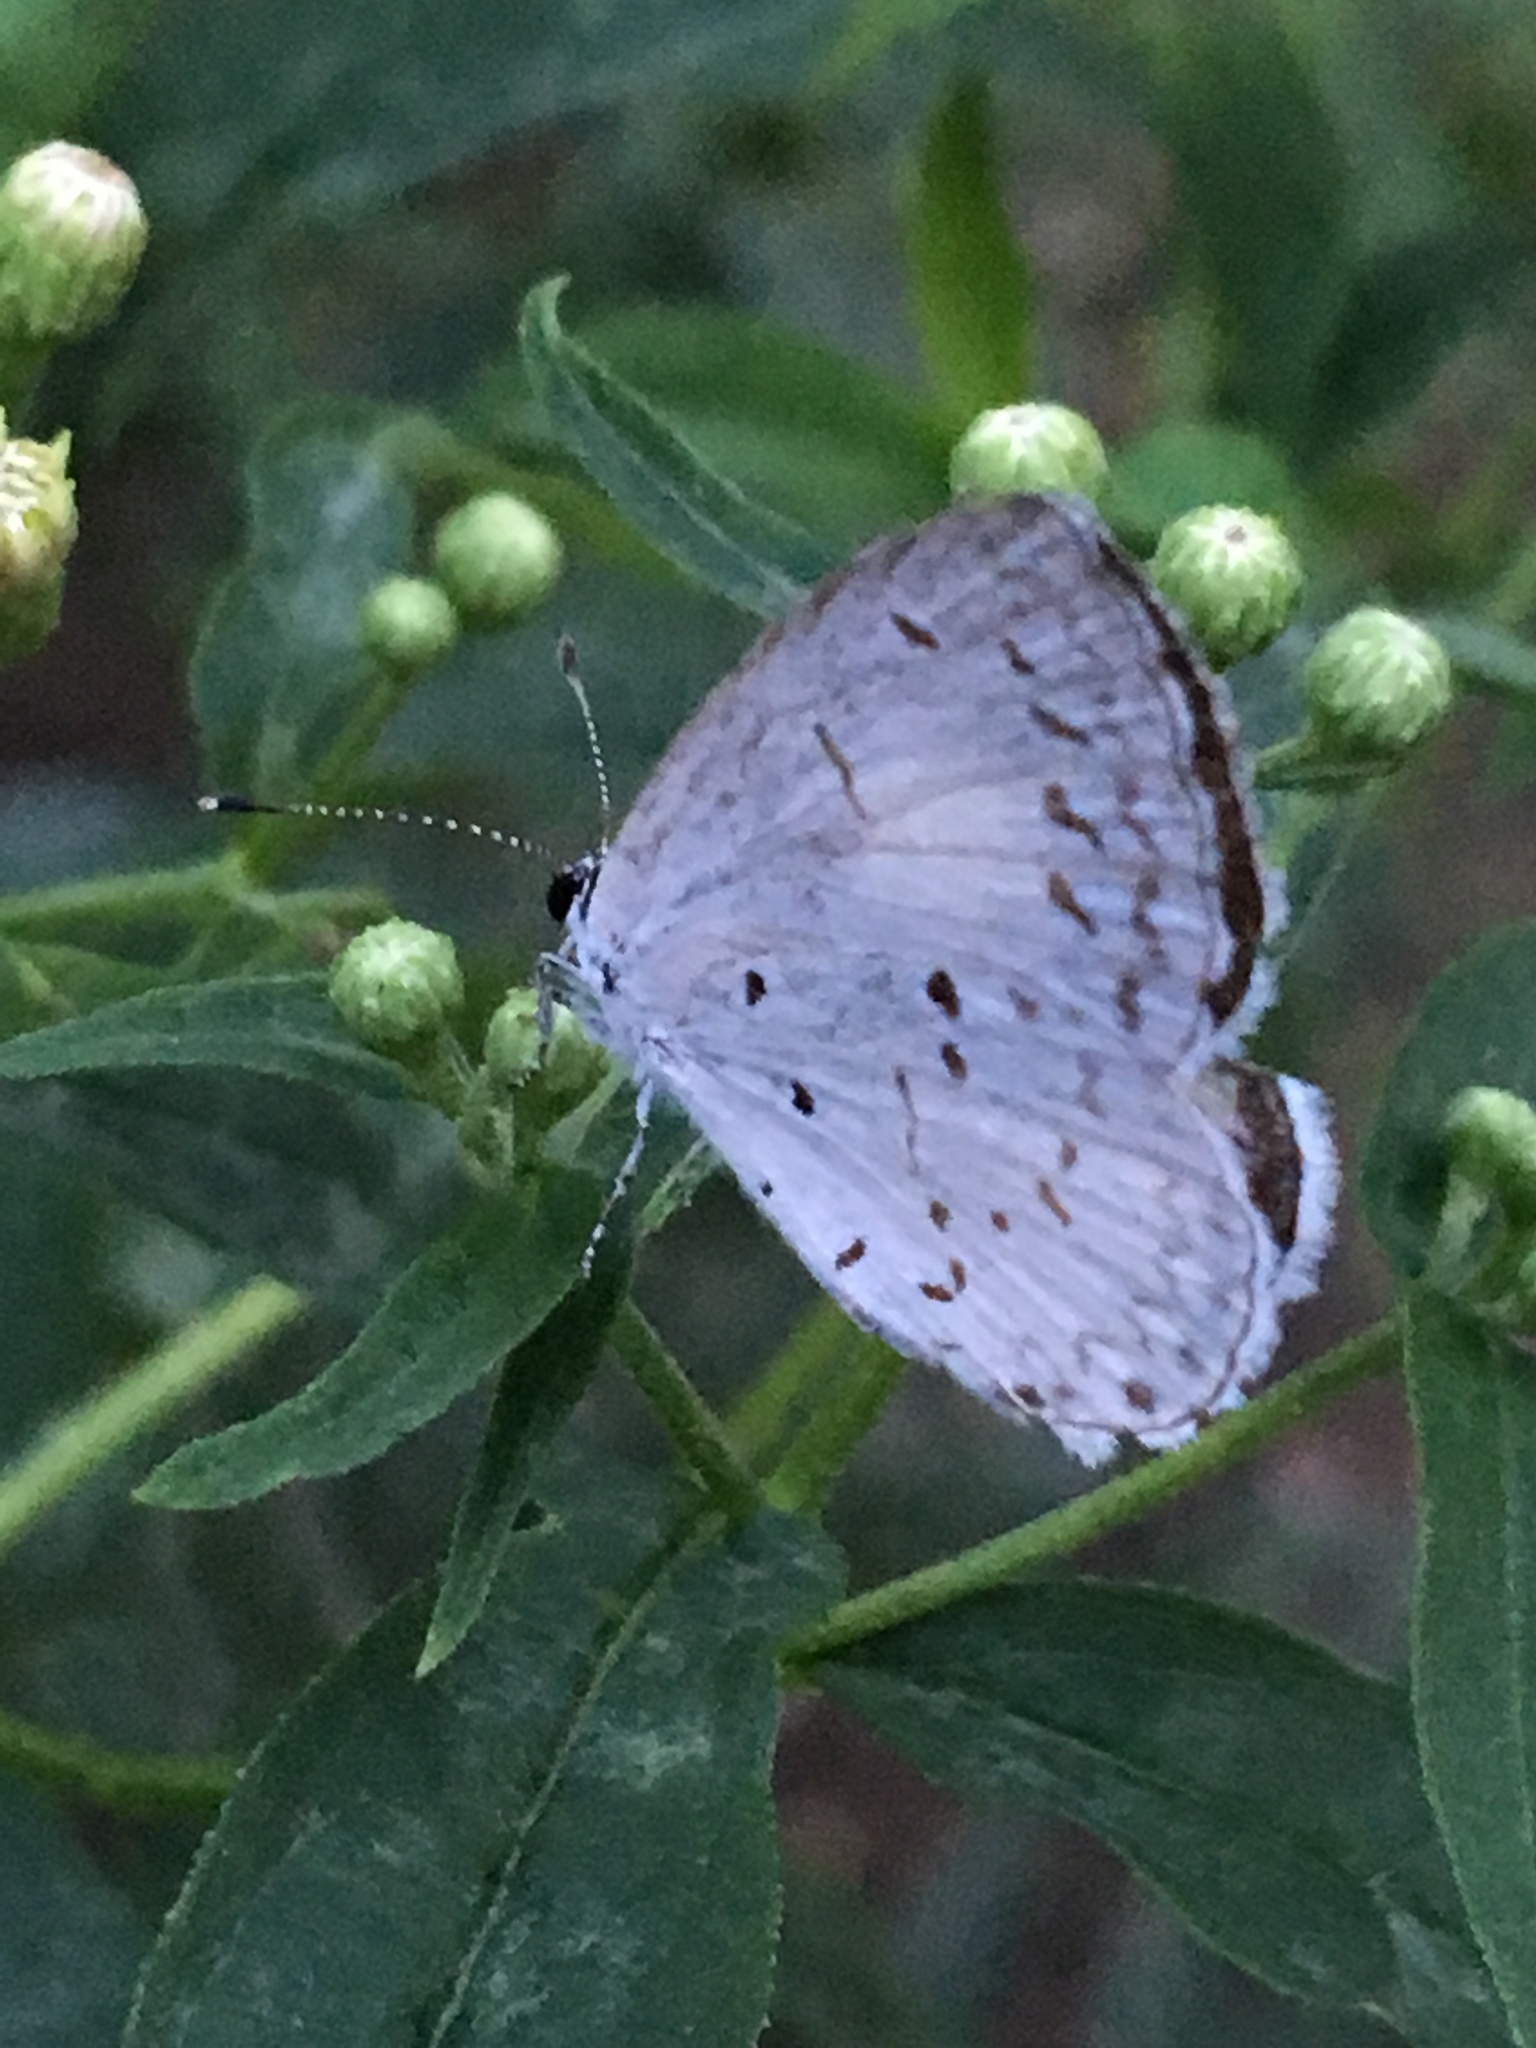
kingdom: Animalia
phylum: Arthropoda
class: Insecta
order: Lepidoptera
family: Lycaenidae
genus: Cyaniris
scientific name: Cyaniris neglecta
